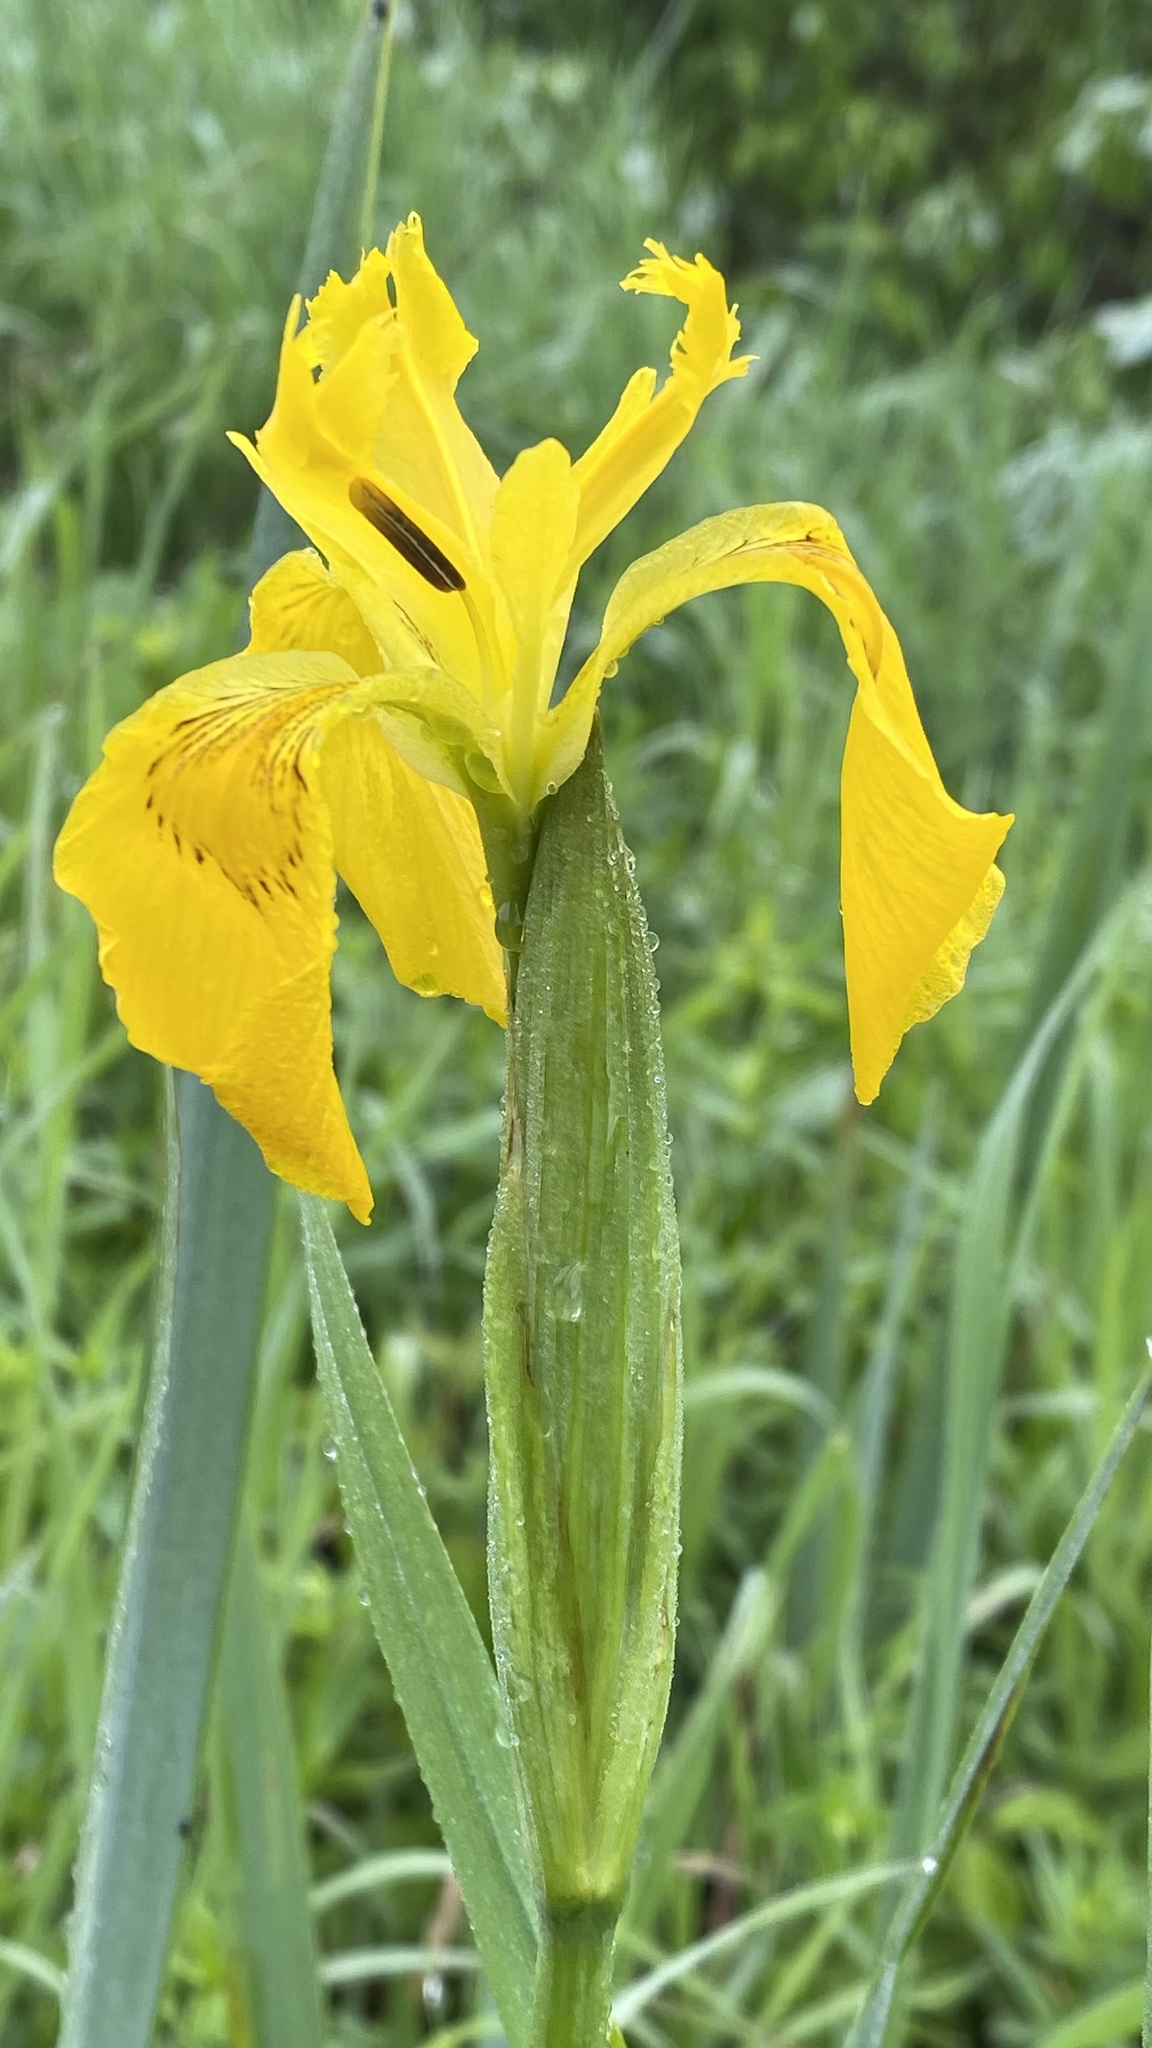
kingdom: Plantae
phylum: Tracheophyta
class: Liliopsida
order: Asparagales
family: Iridaceae
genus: Iris
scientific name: Iris pseudacorus
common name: Yellow flag
